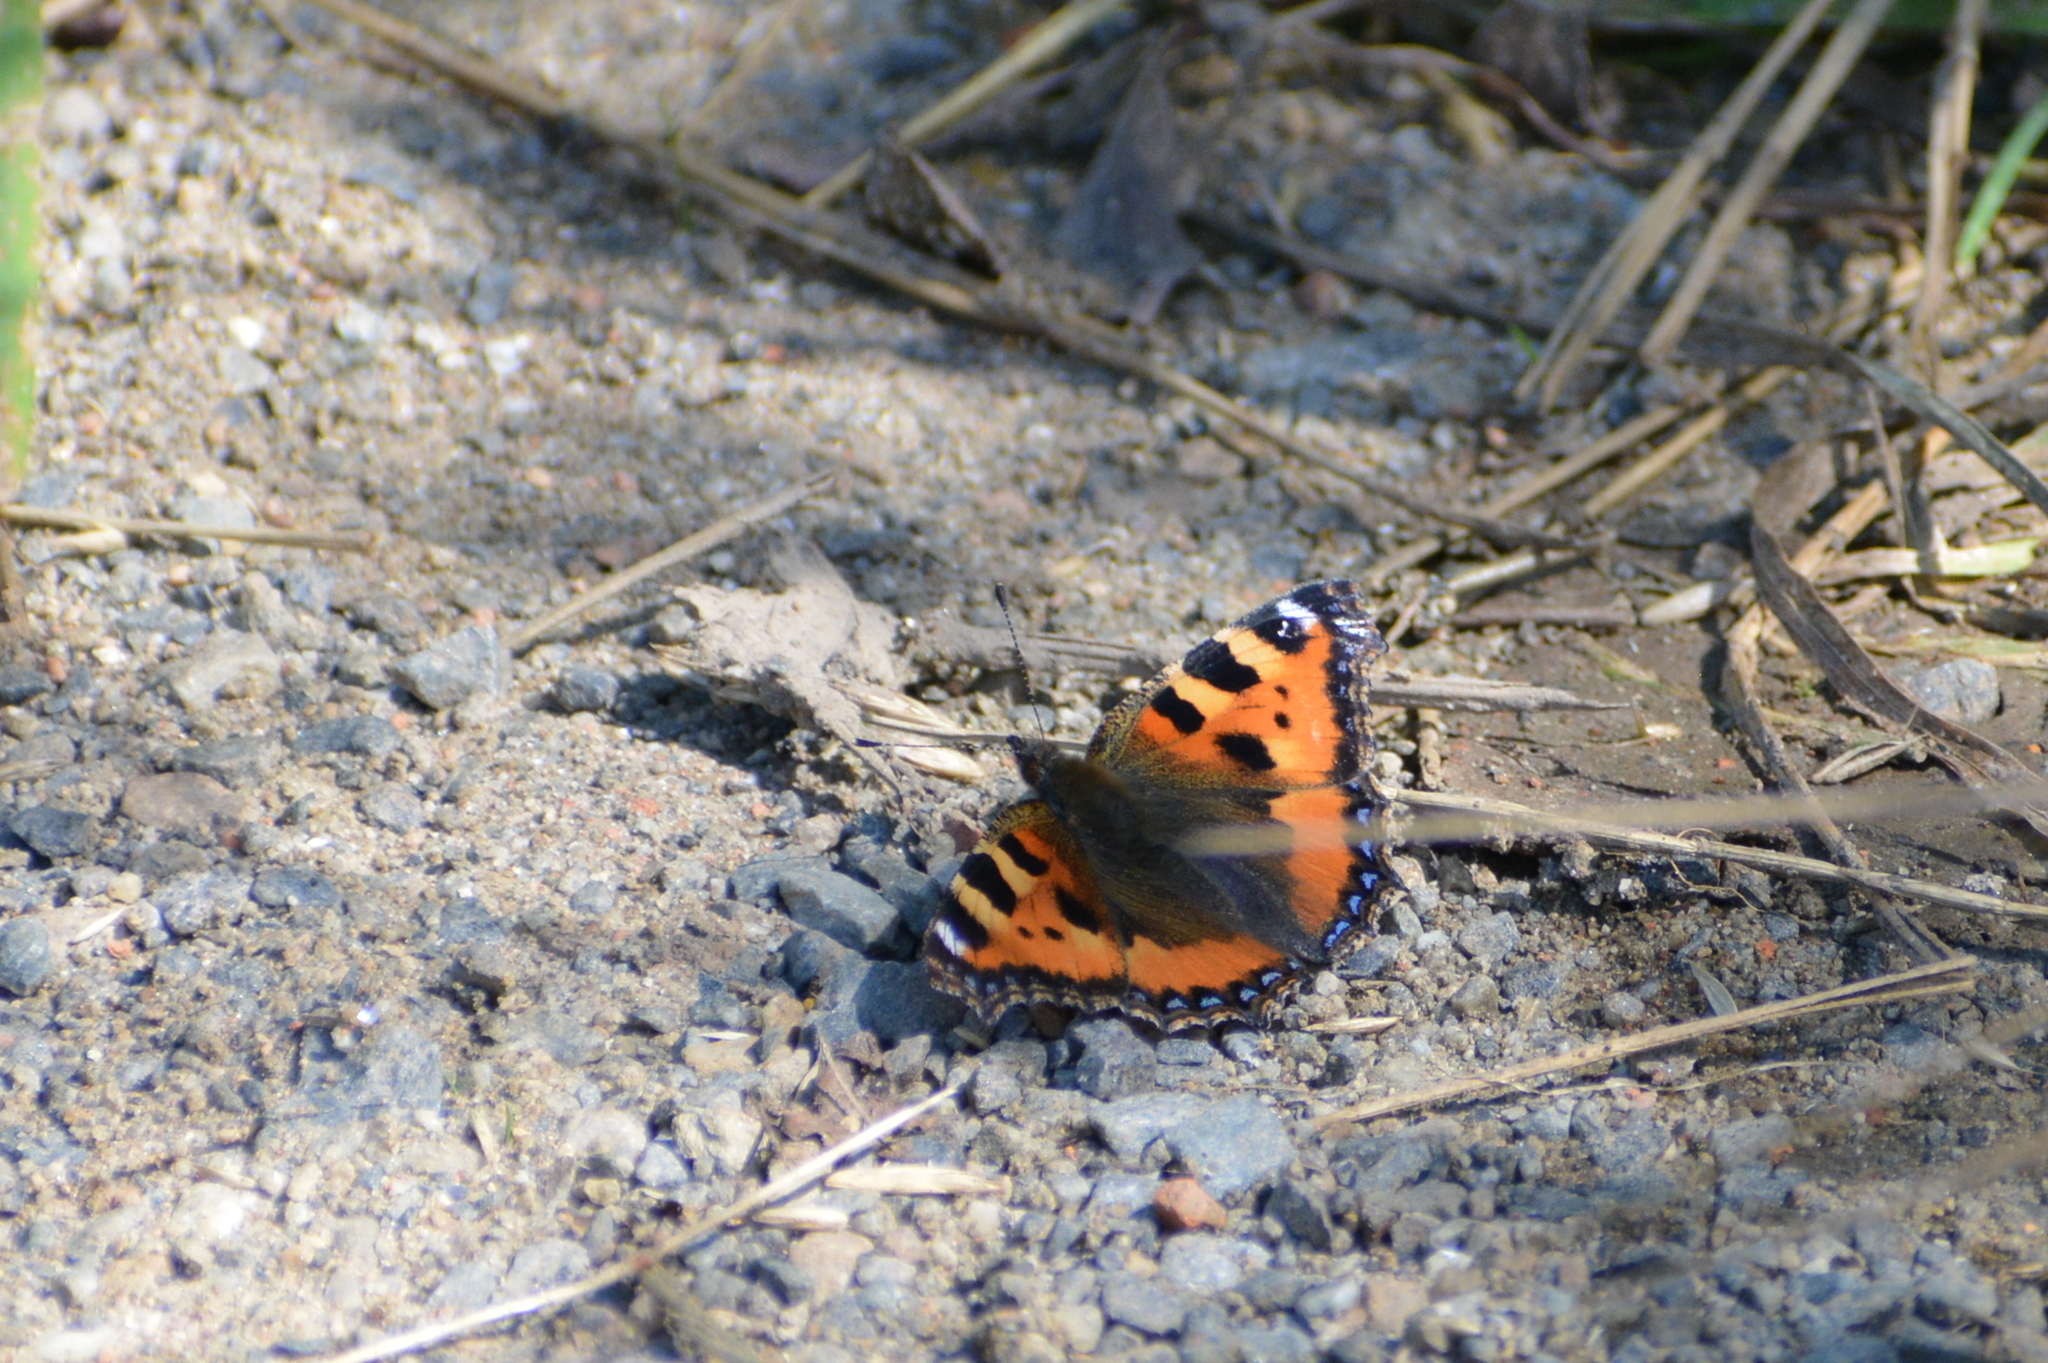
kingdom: Animalia
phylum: Arthropoda
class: Insecta
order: Lepidoptera
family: Nymphalidae
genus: Aglais
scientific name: Aglais urticae
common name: Small tortoiseshell
